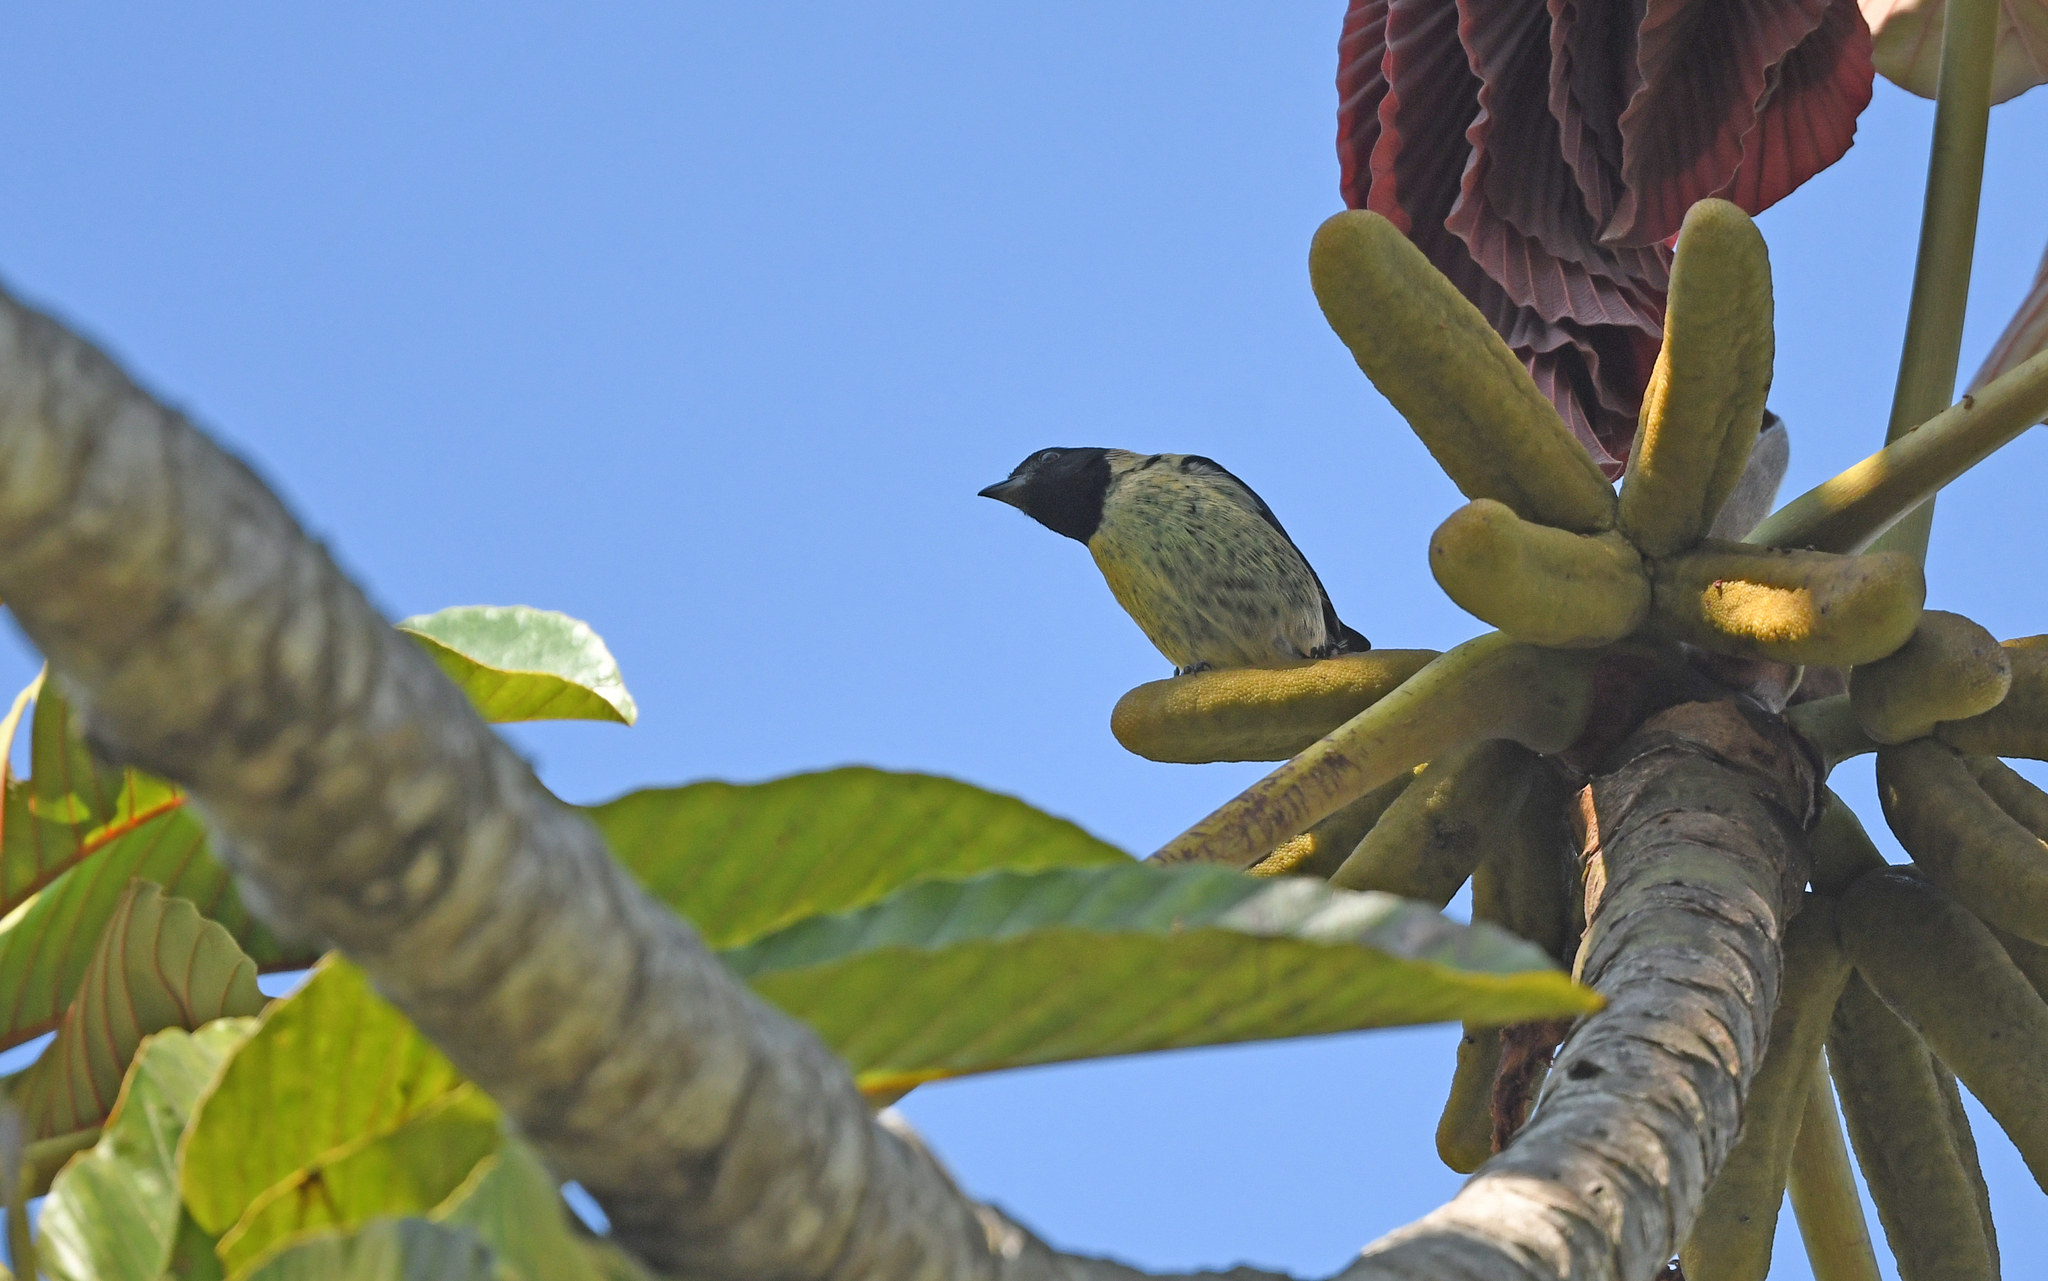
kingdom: Animalia
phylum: Chordata
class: Aves
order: Passeriformes
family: Thraupidae
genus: Stilpnia
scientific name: Stilpnia cyanoptera
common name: Black-headed tanager
